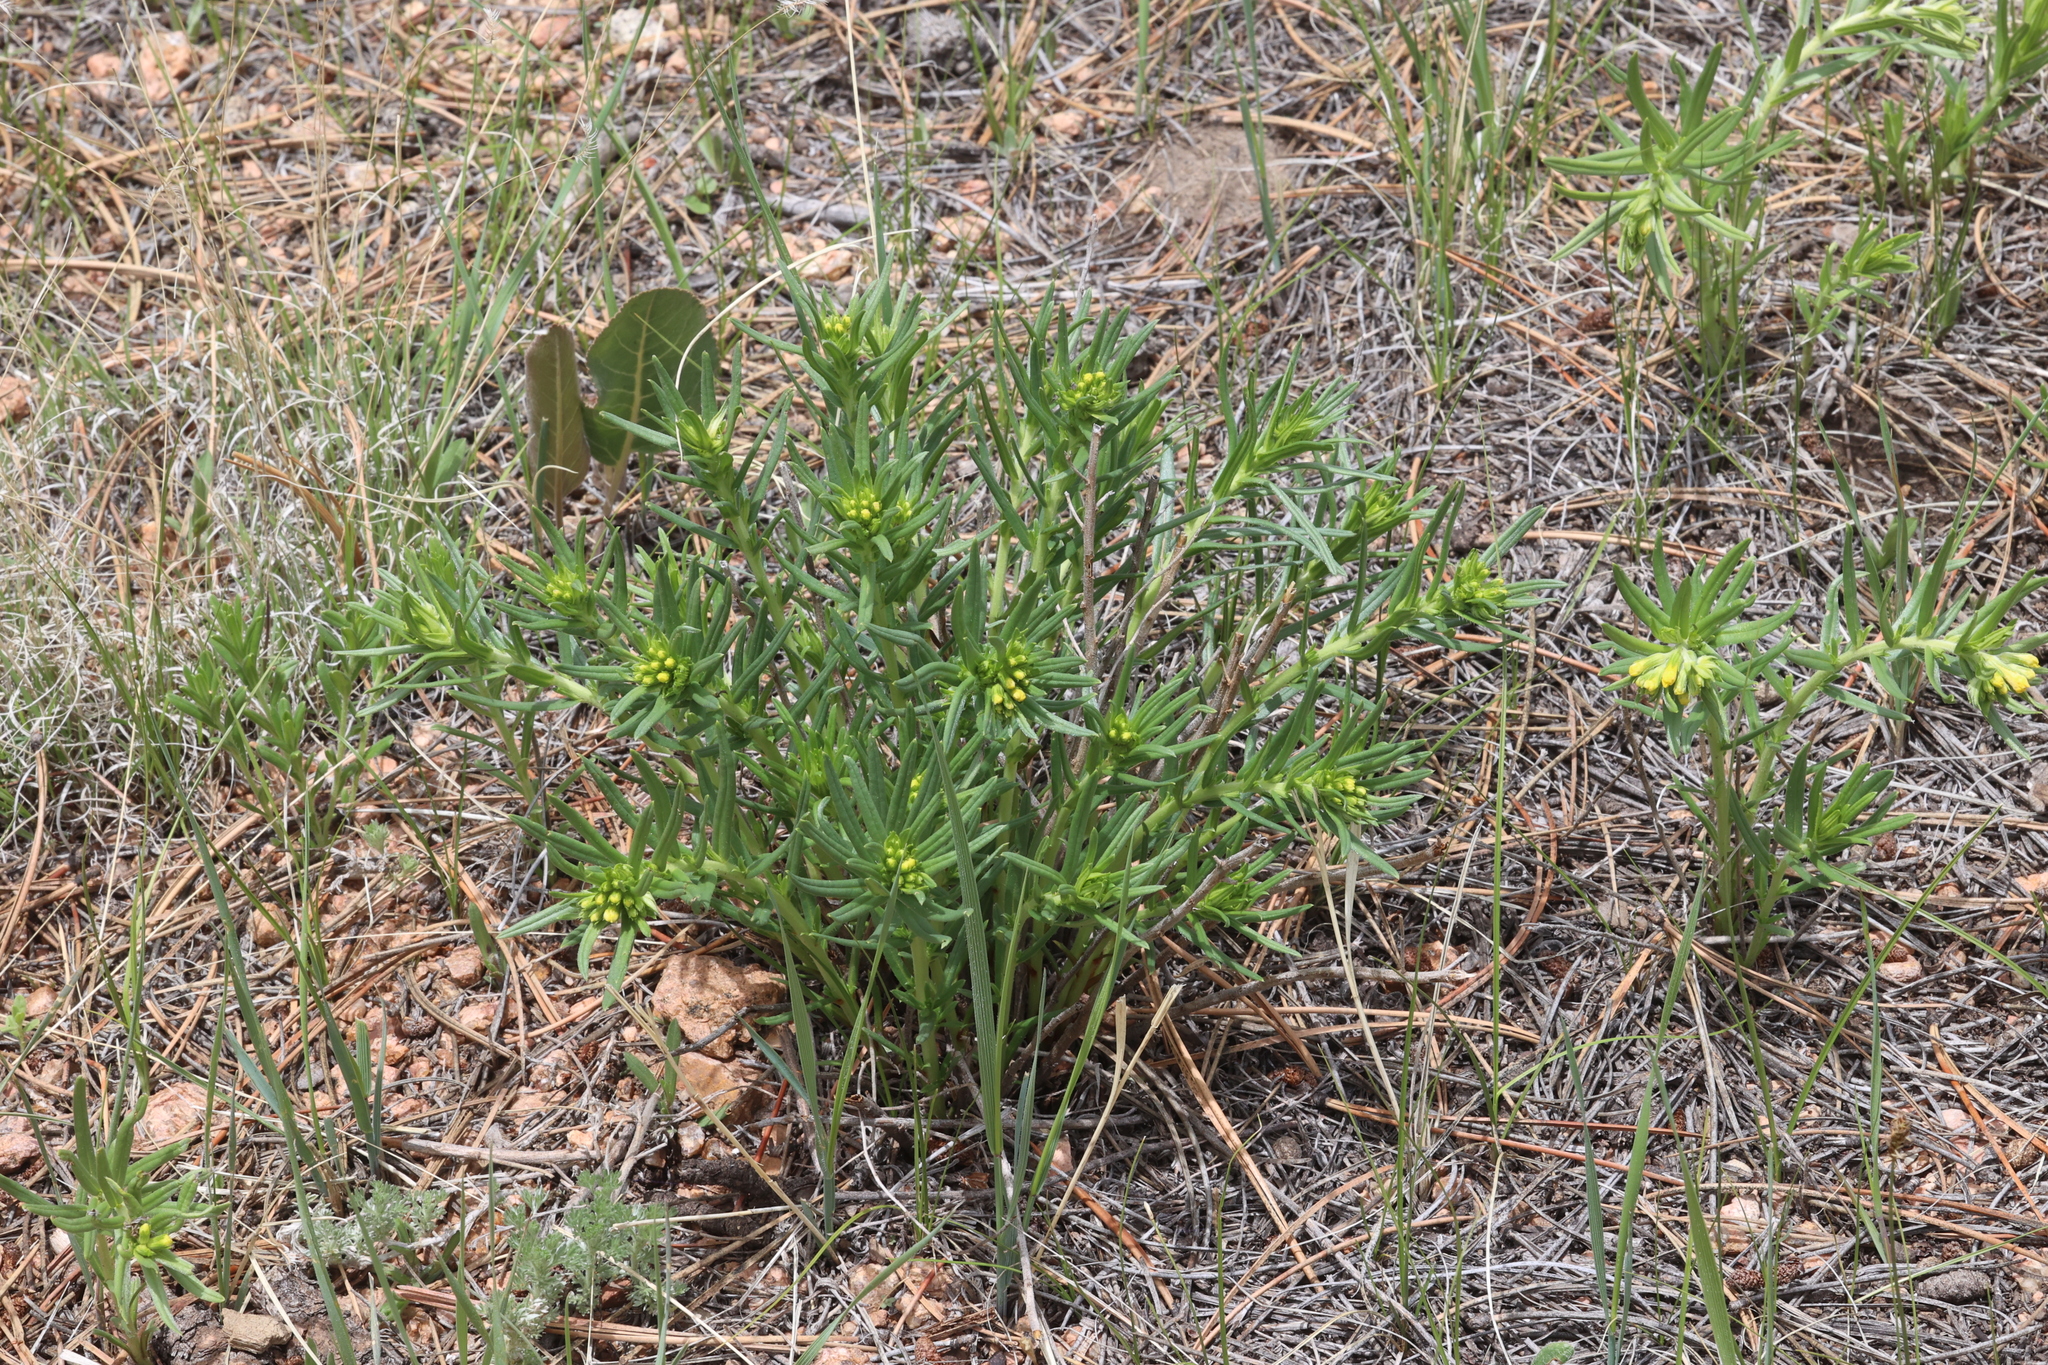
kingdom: Plantae
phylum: Tracheophyta
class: Magnoliopsida
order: Boraginales
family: Boraginaceae
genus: Lithospermum
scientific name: Lithospermum multiflorum
